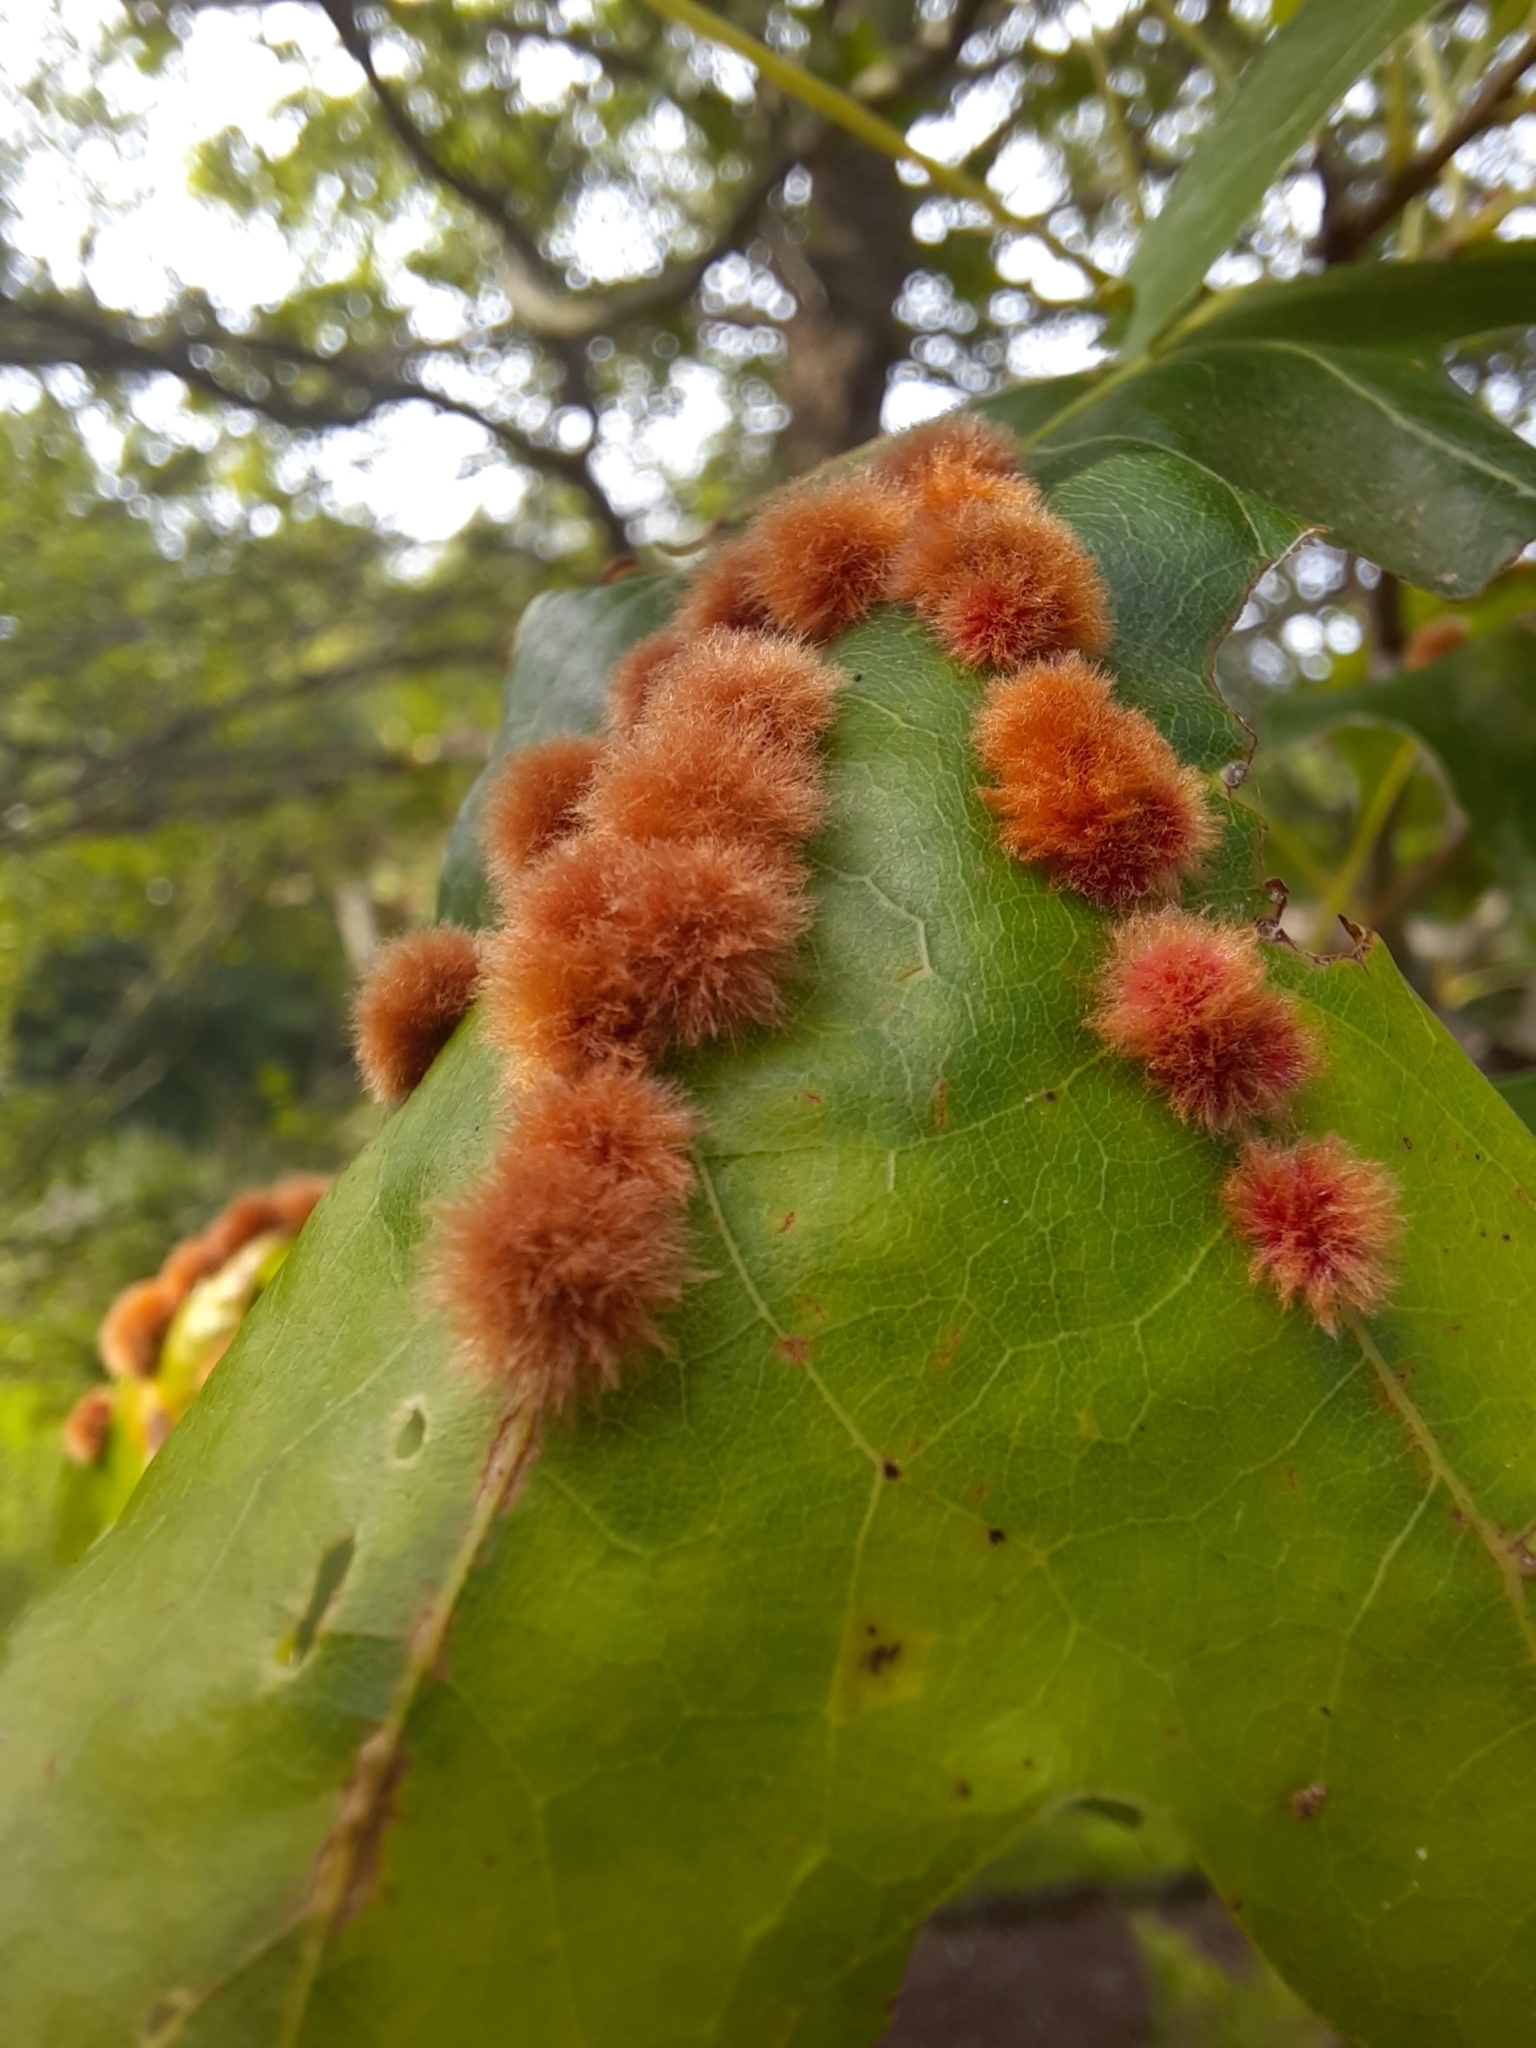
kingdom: Animalia
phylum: Arthropoda
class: Insecta
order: Hymenoptera
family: Cynipidae
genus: Callirhytis
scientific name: Callirhytis
